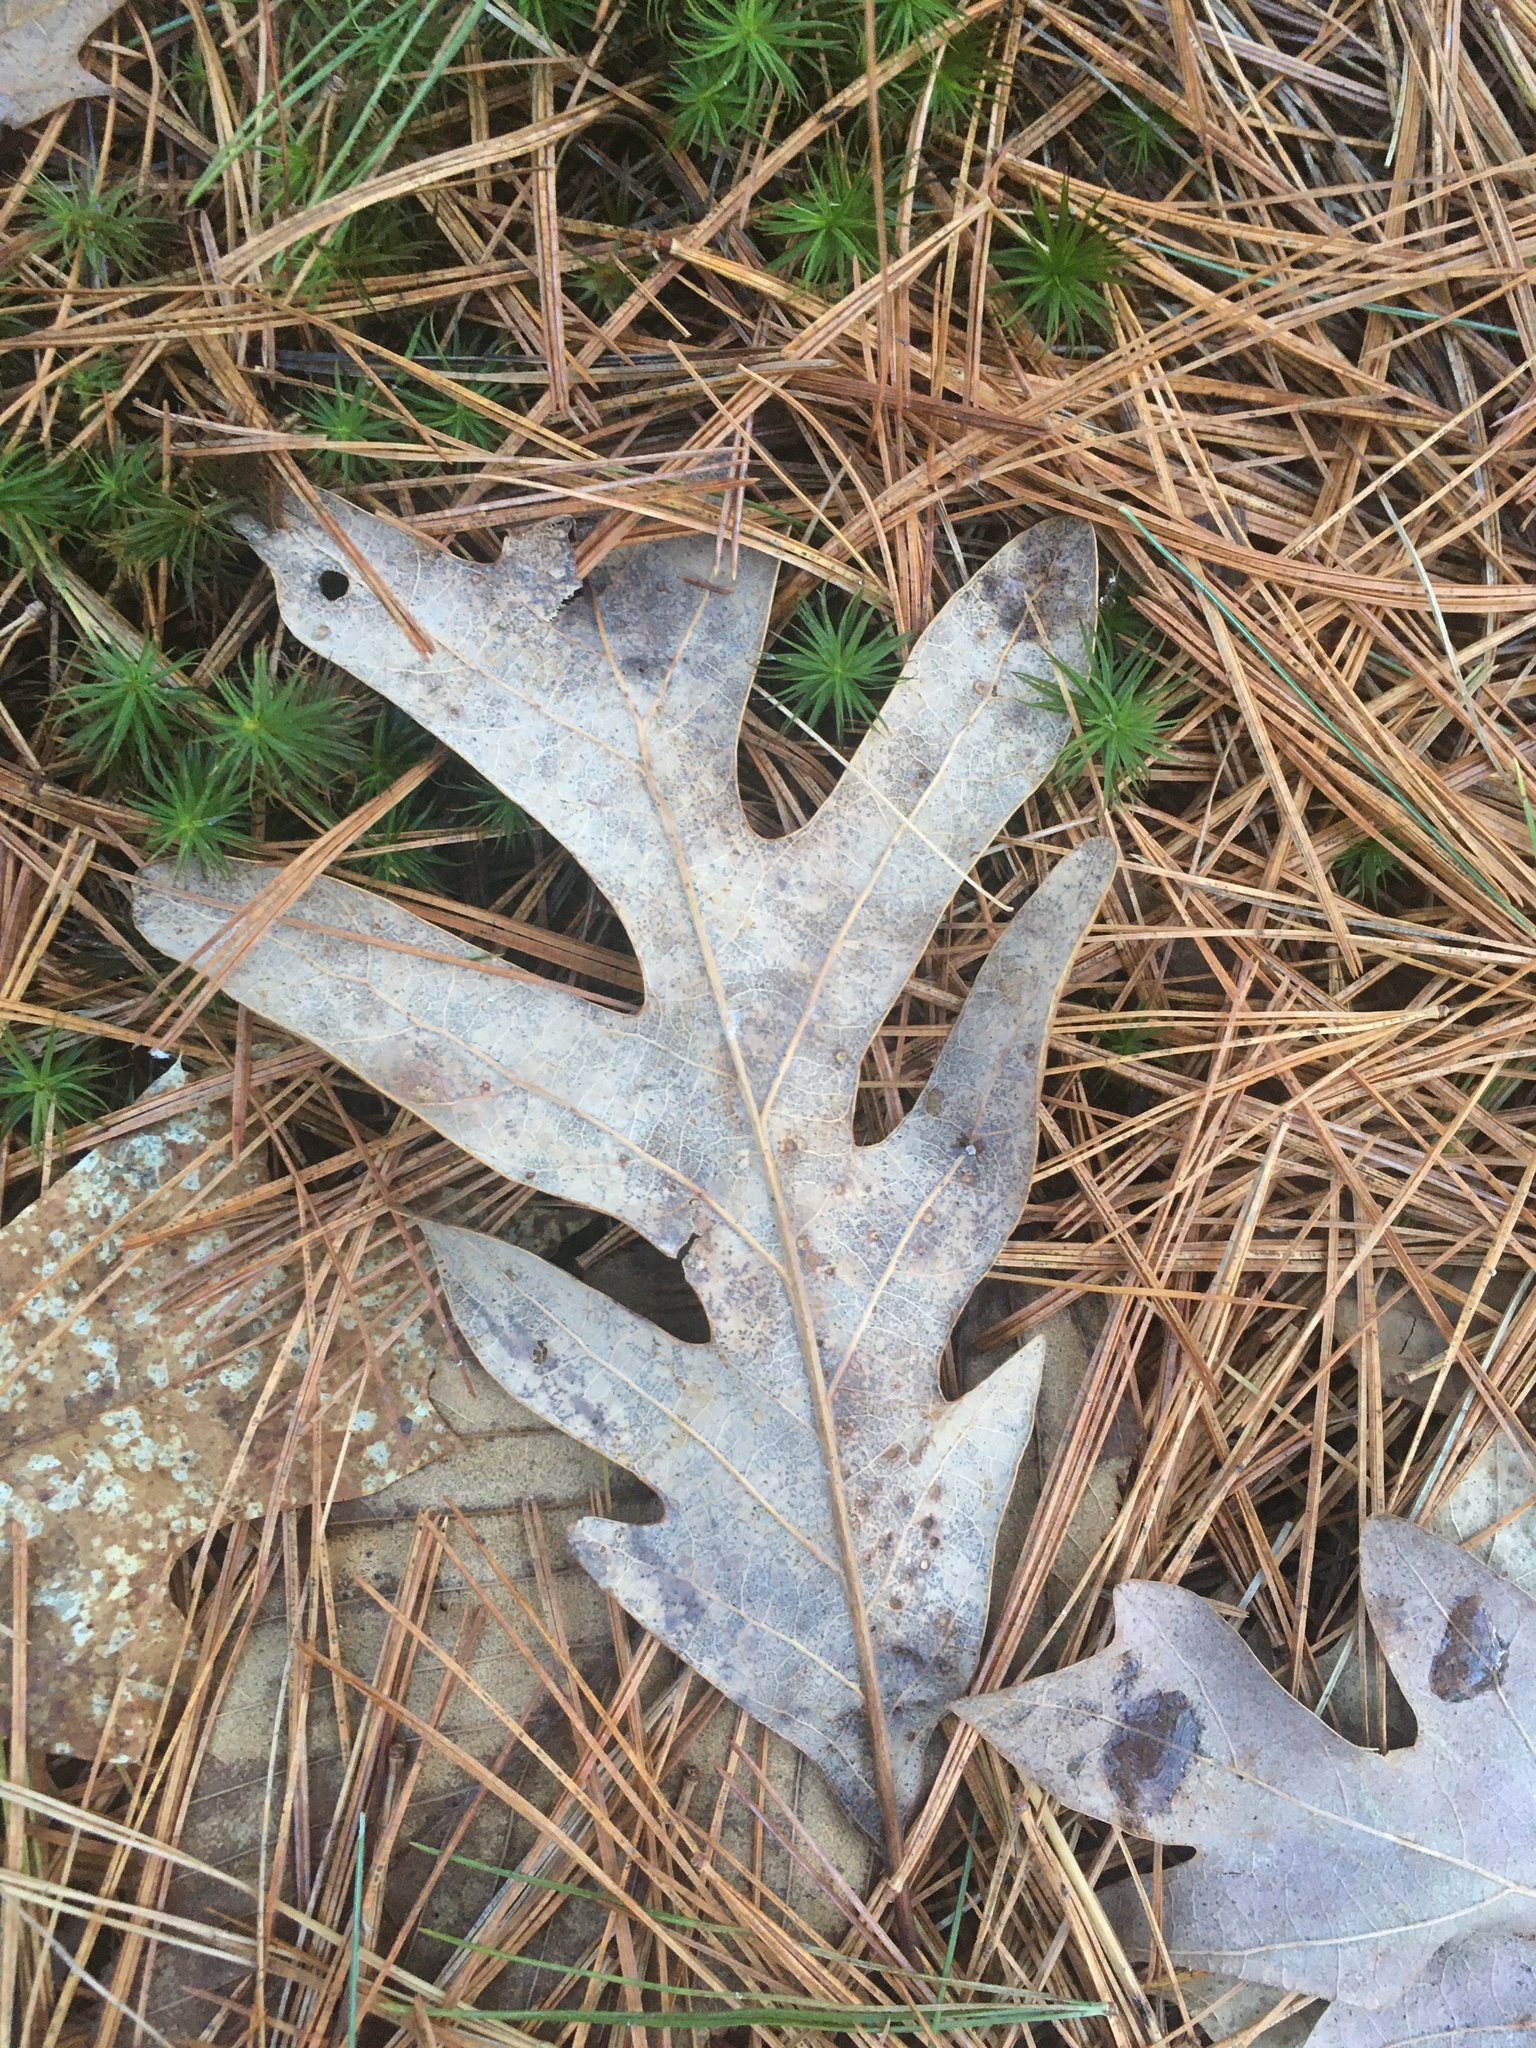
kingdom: Plantae
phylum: Tracheophyta
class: Magnoliopsida
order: Fagales
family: Fagaceae
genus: Quercus
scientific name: Quercus alba
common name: White oak
